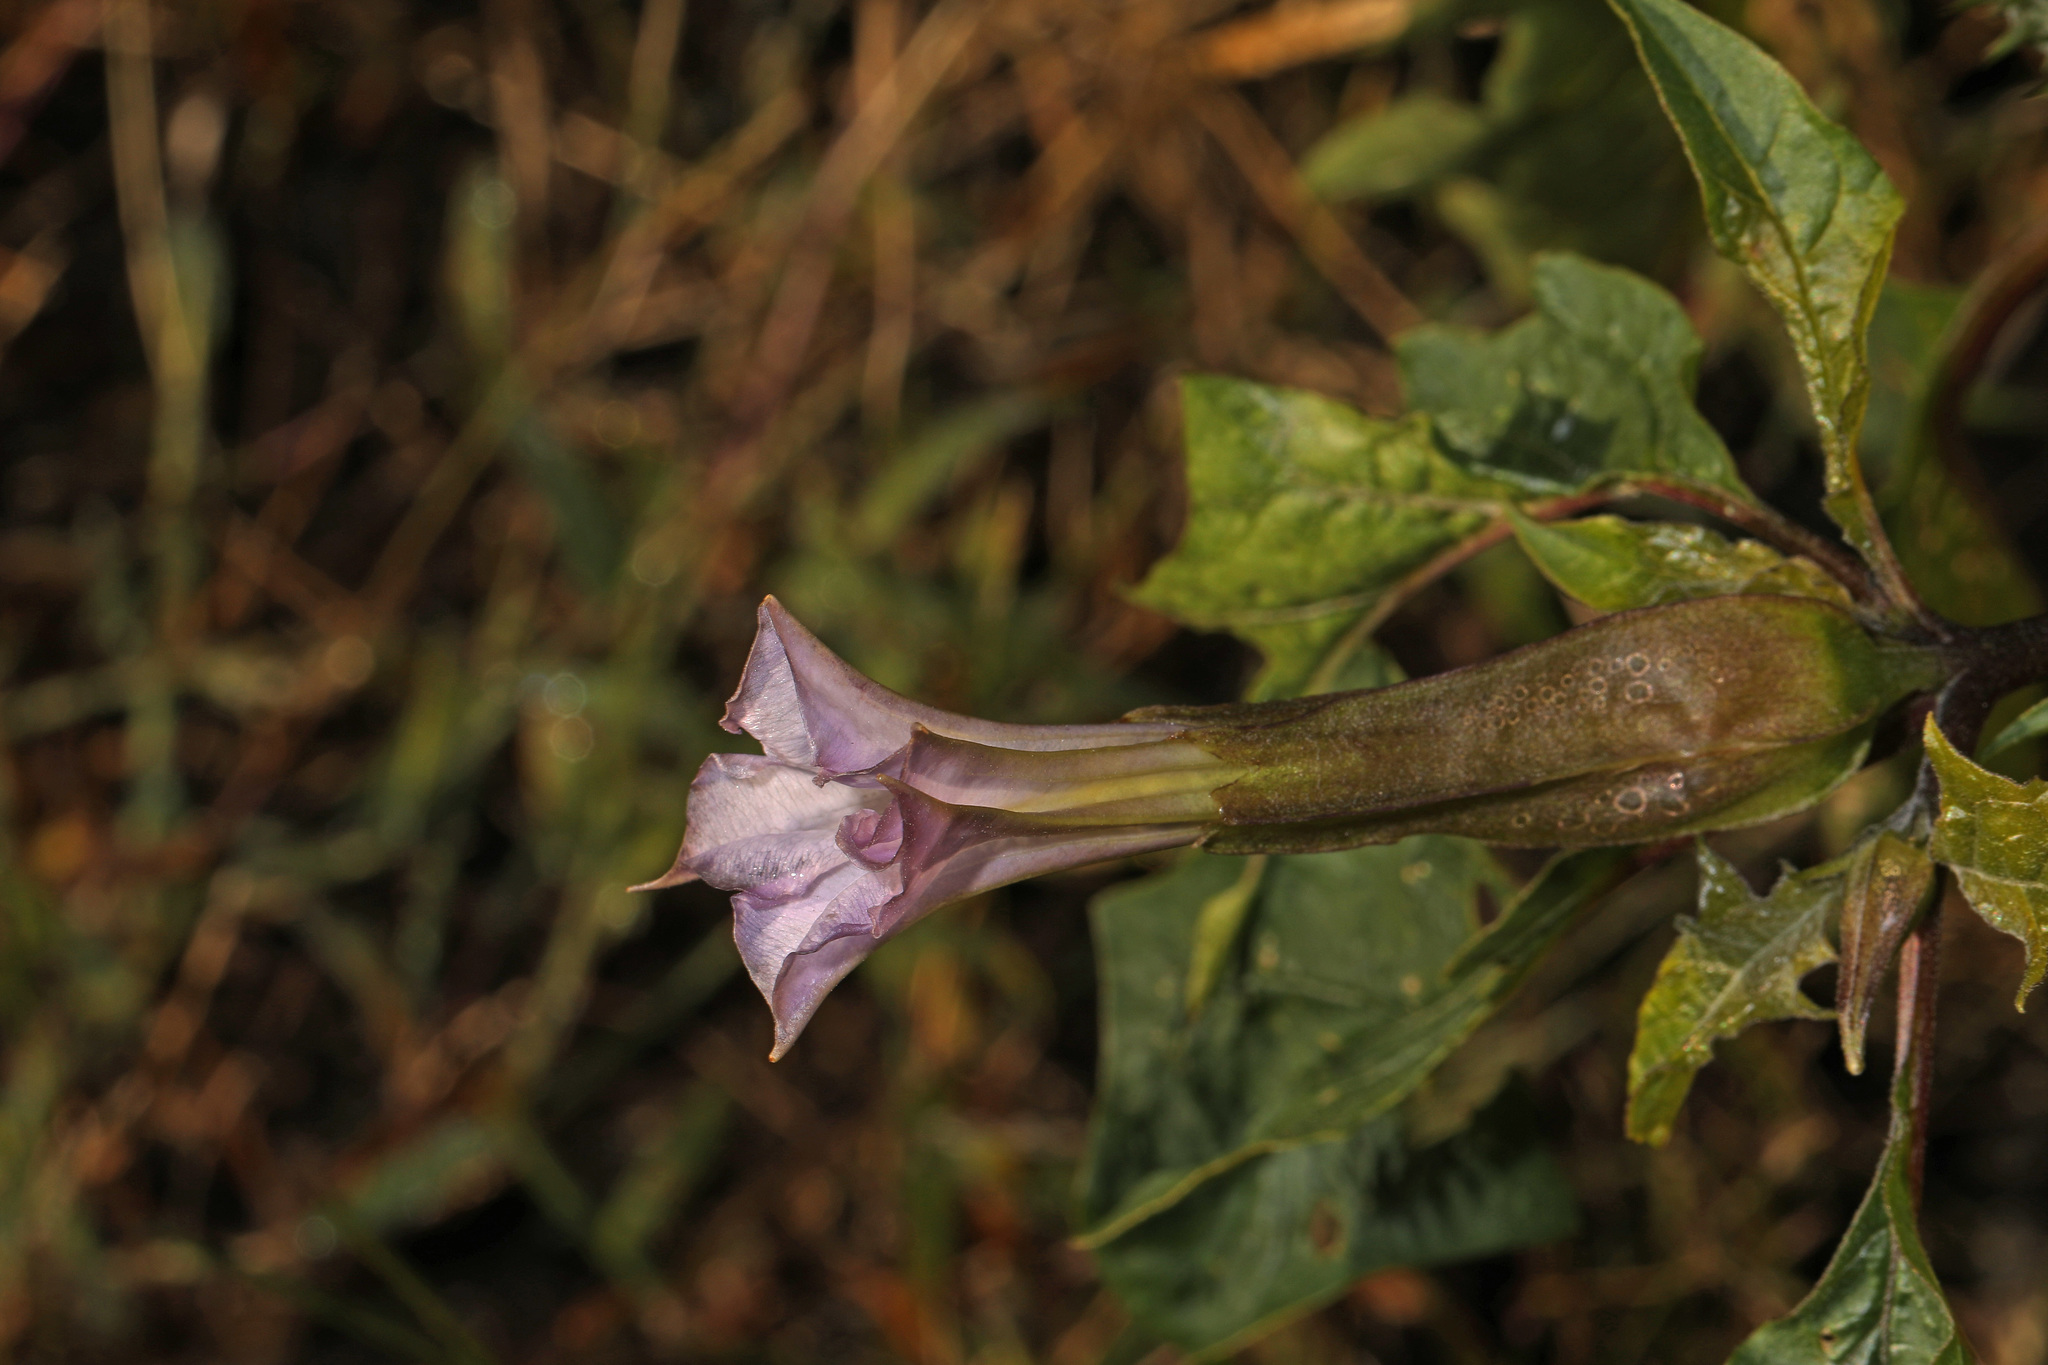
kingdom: Plantae
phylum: Tracheophyta
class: Magnoliopsida
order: Solanales
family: Solanaceae
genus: Datura
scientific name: Datura stramonium
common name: Thorn-apple
